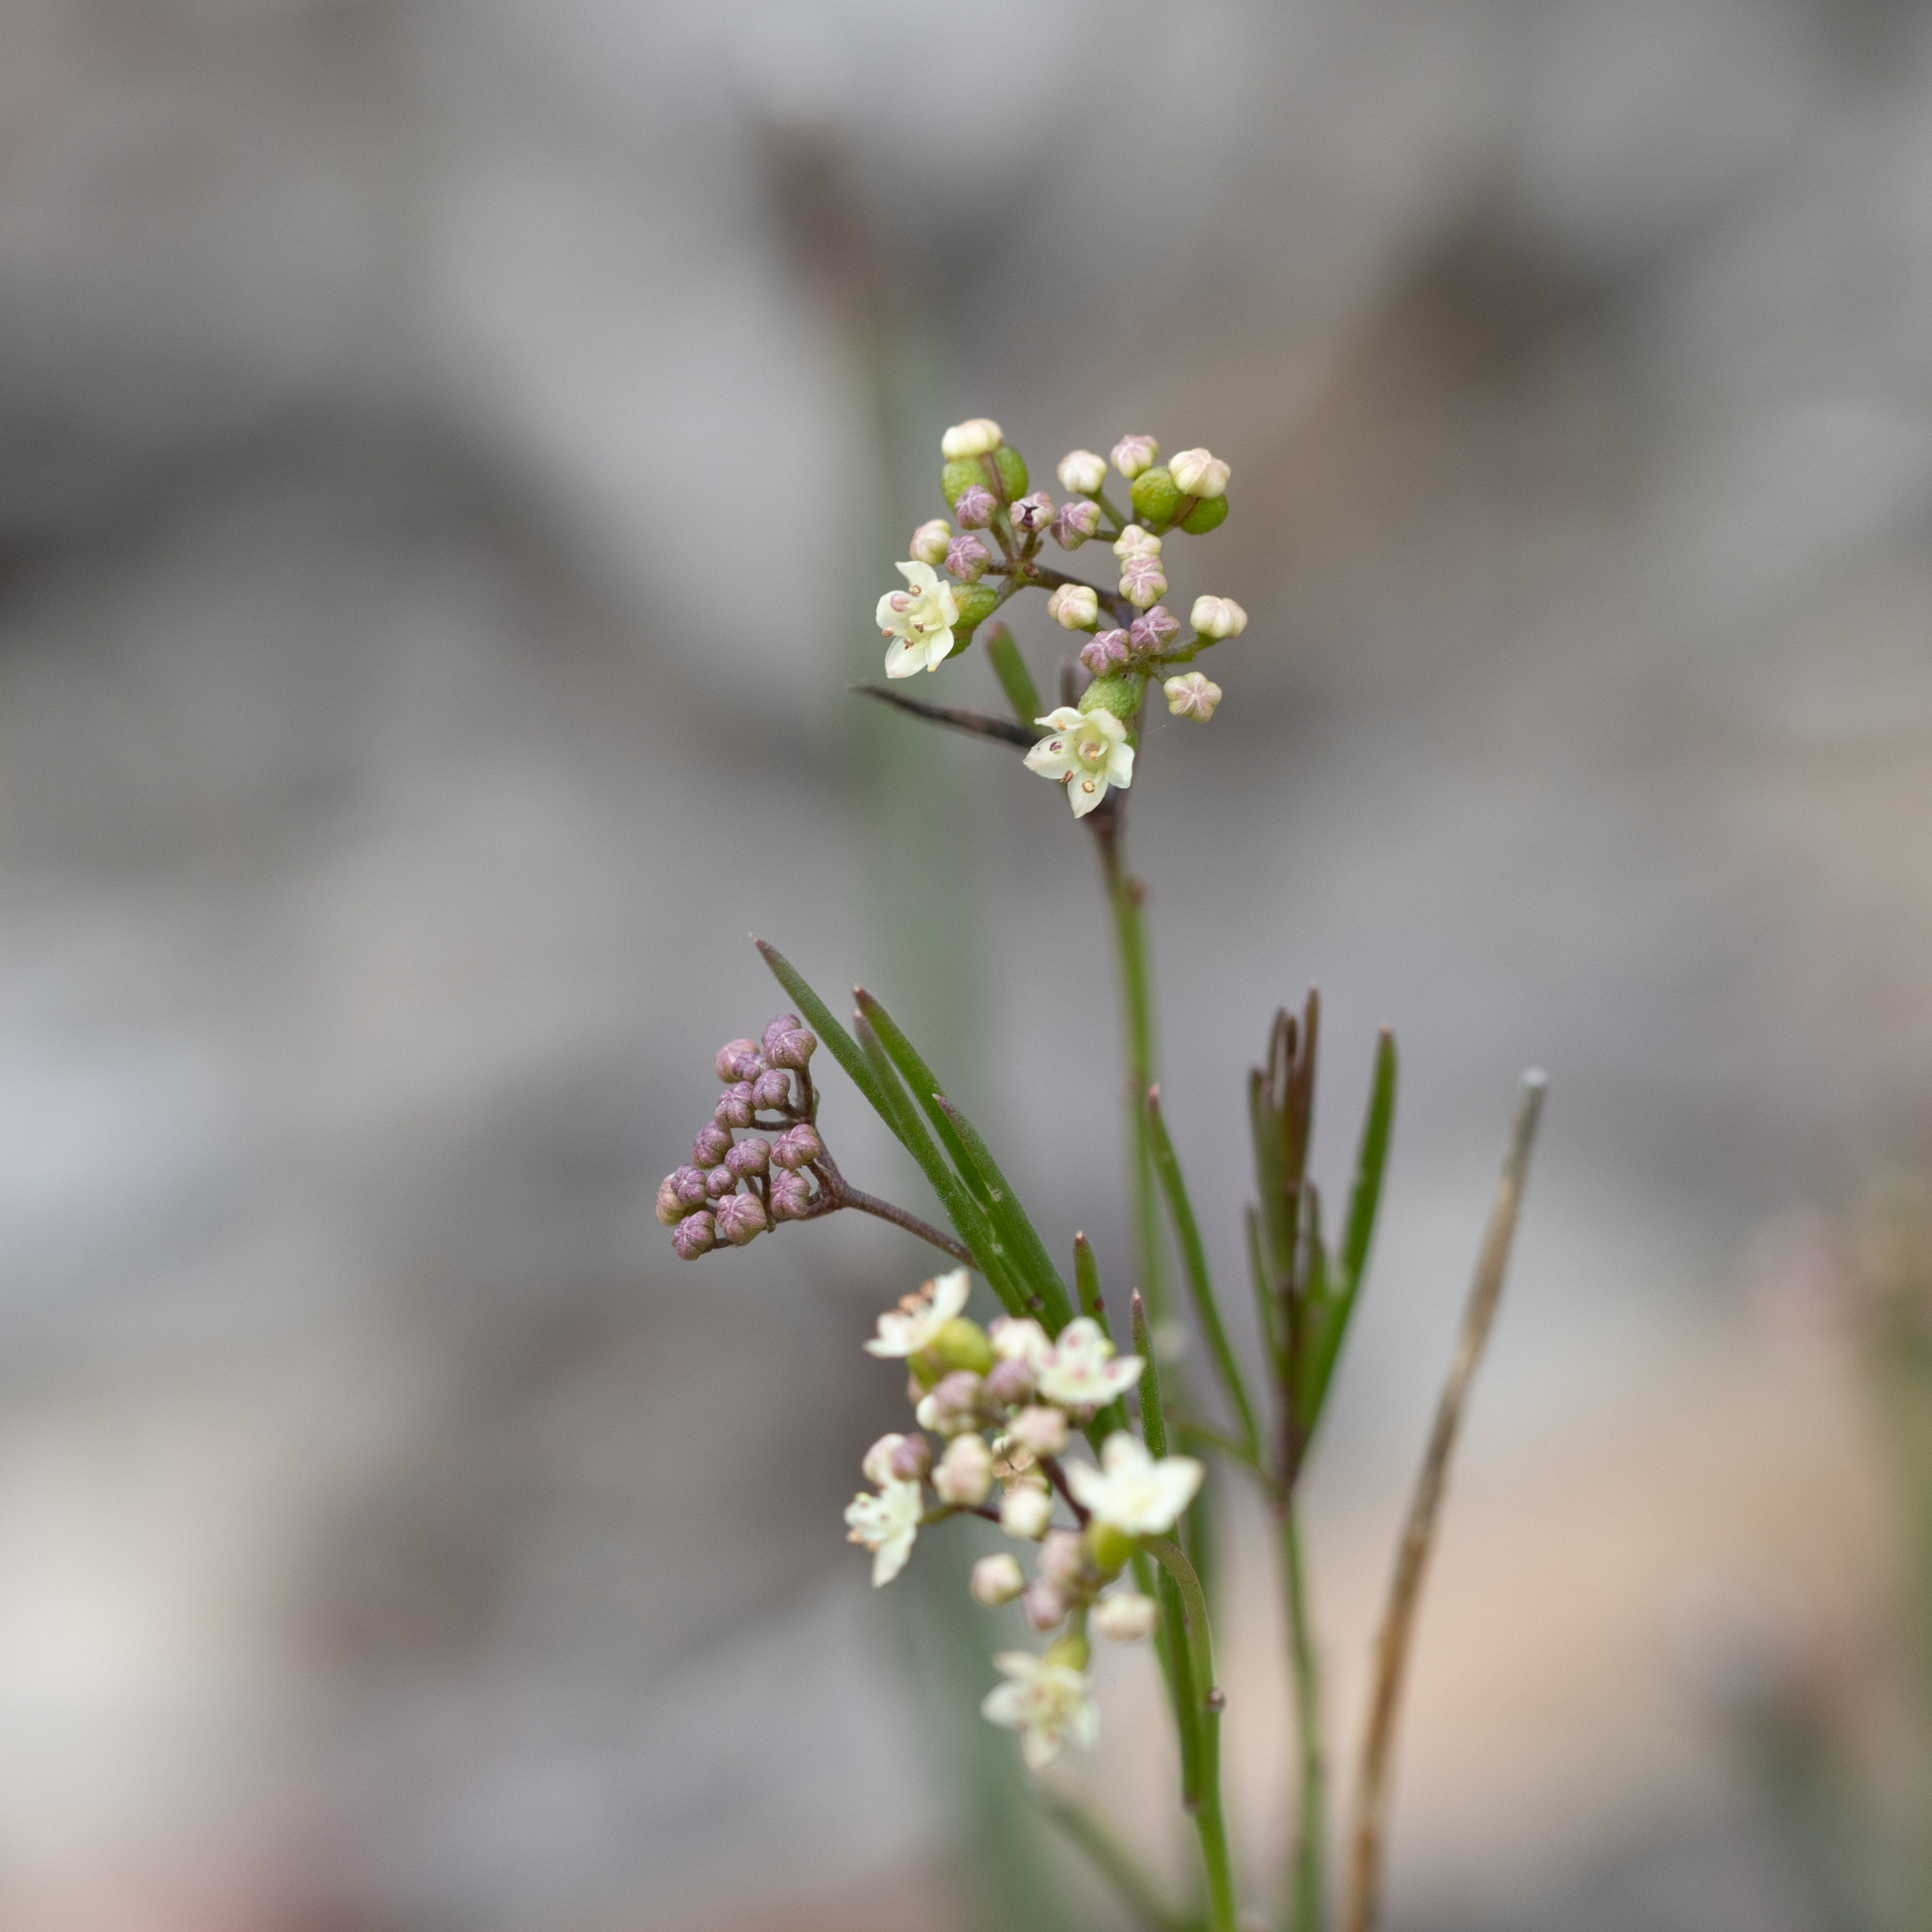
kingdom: Plantae
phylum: Tracheophyta
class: Magnoliopsida
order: Apiales
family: Apiaceae
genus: Platysace
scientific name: Platysace heterophylla
